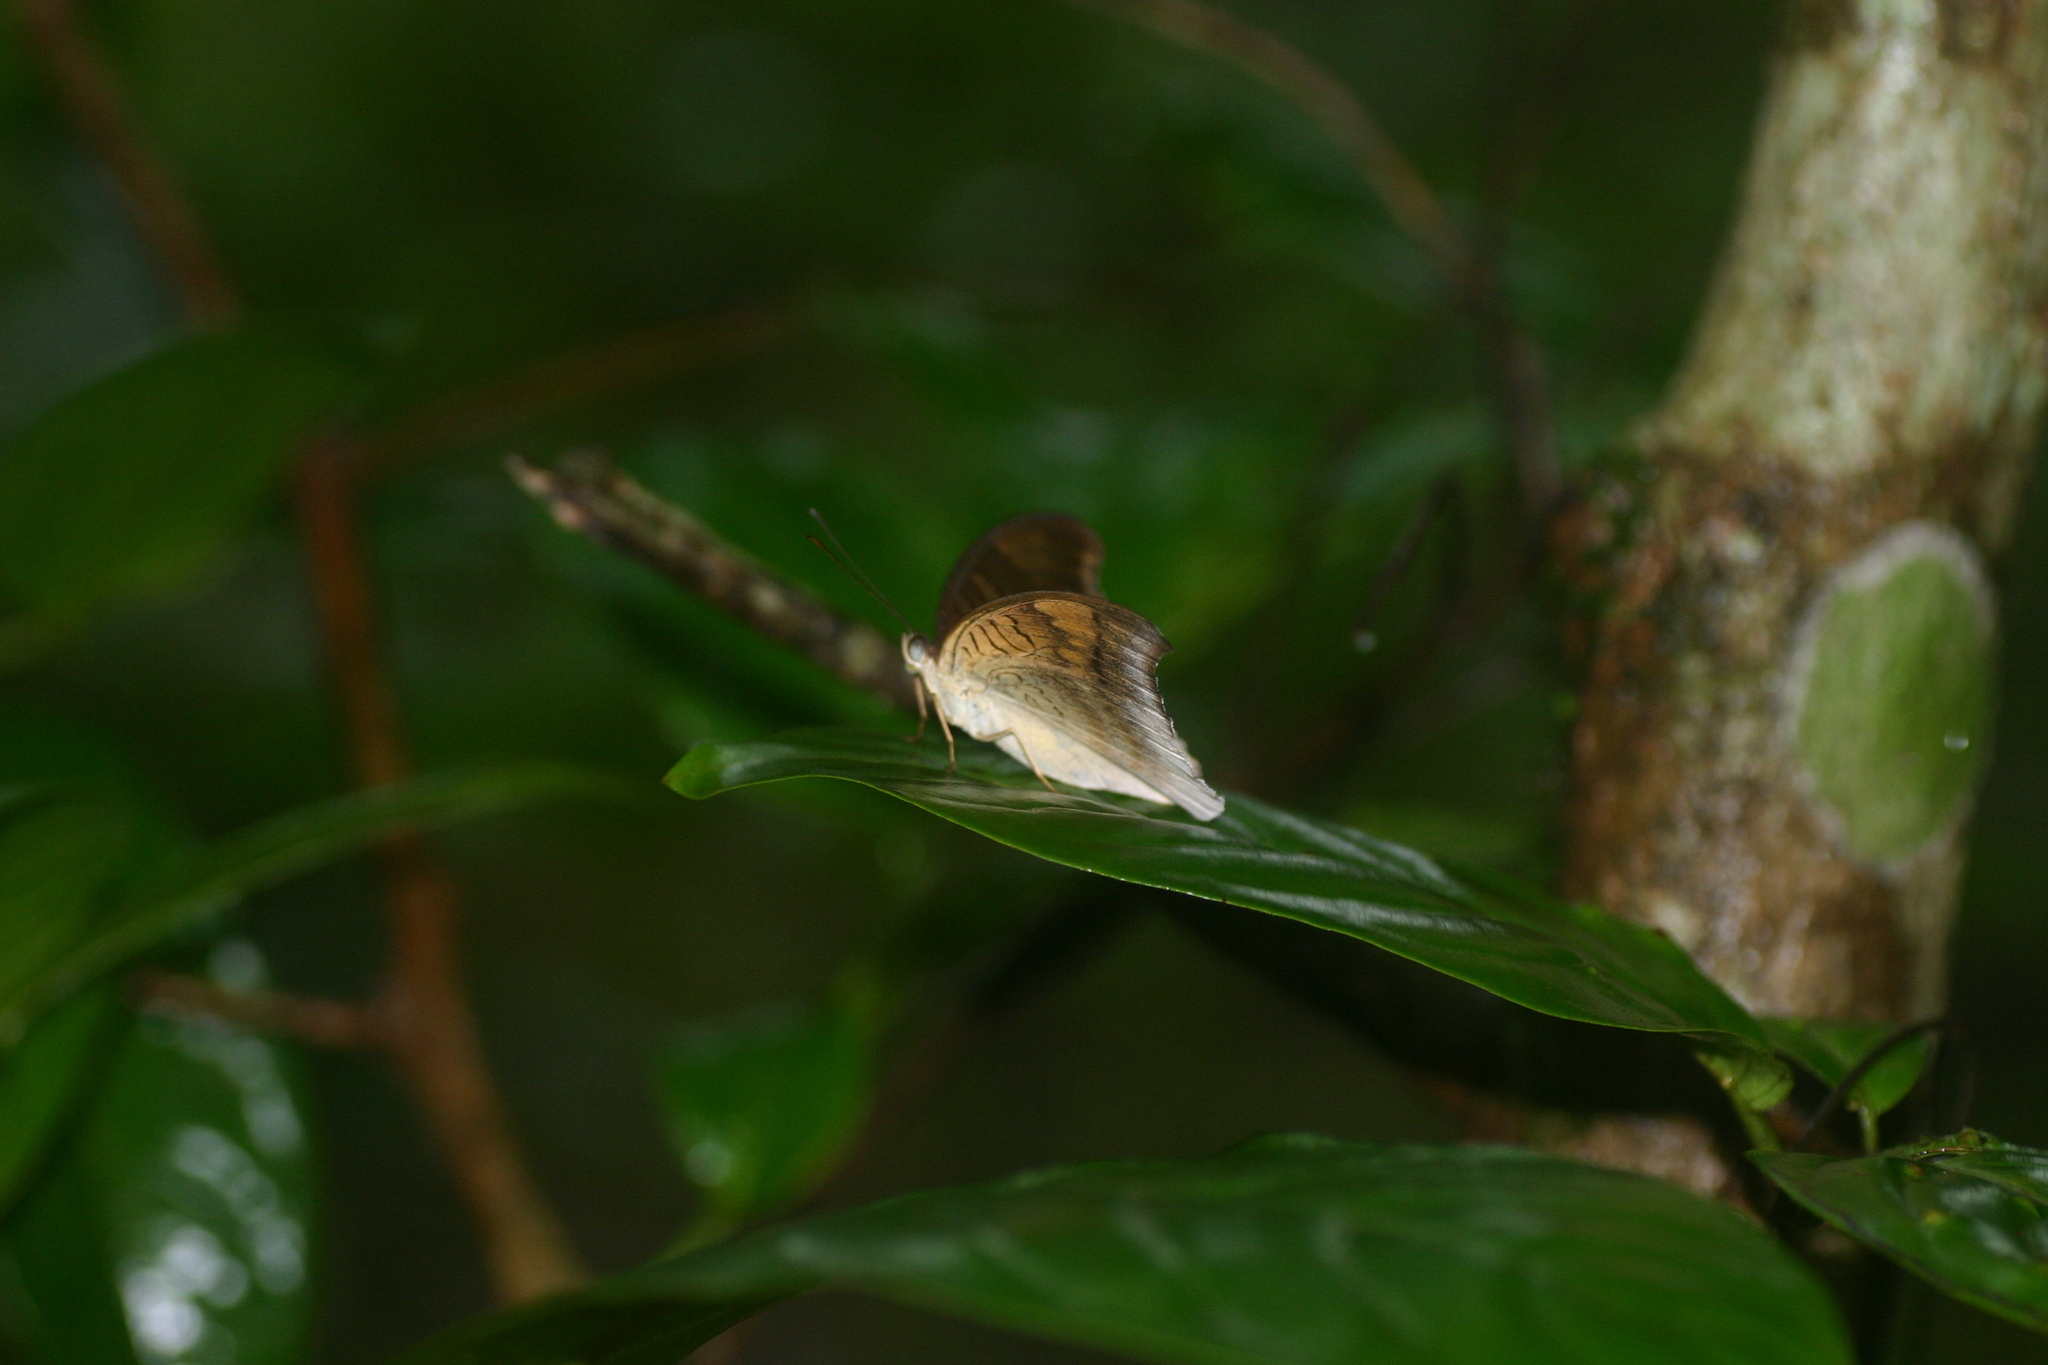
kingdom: Animalia
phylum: Arthropoda
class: Insecta
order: Lepidoptera
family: Nymphalidae
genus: Tanaecia
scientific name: Tanaecia lepidea
